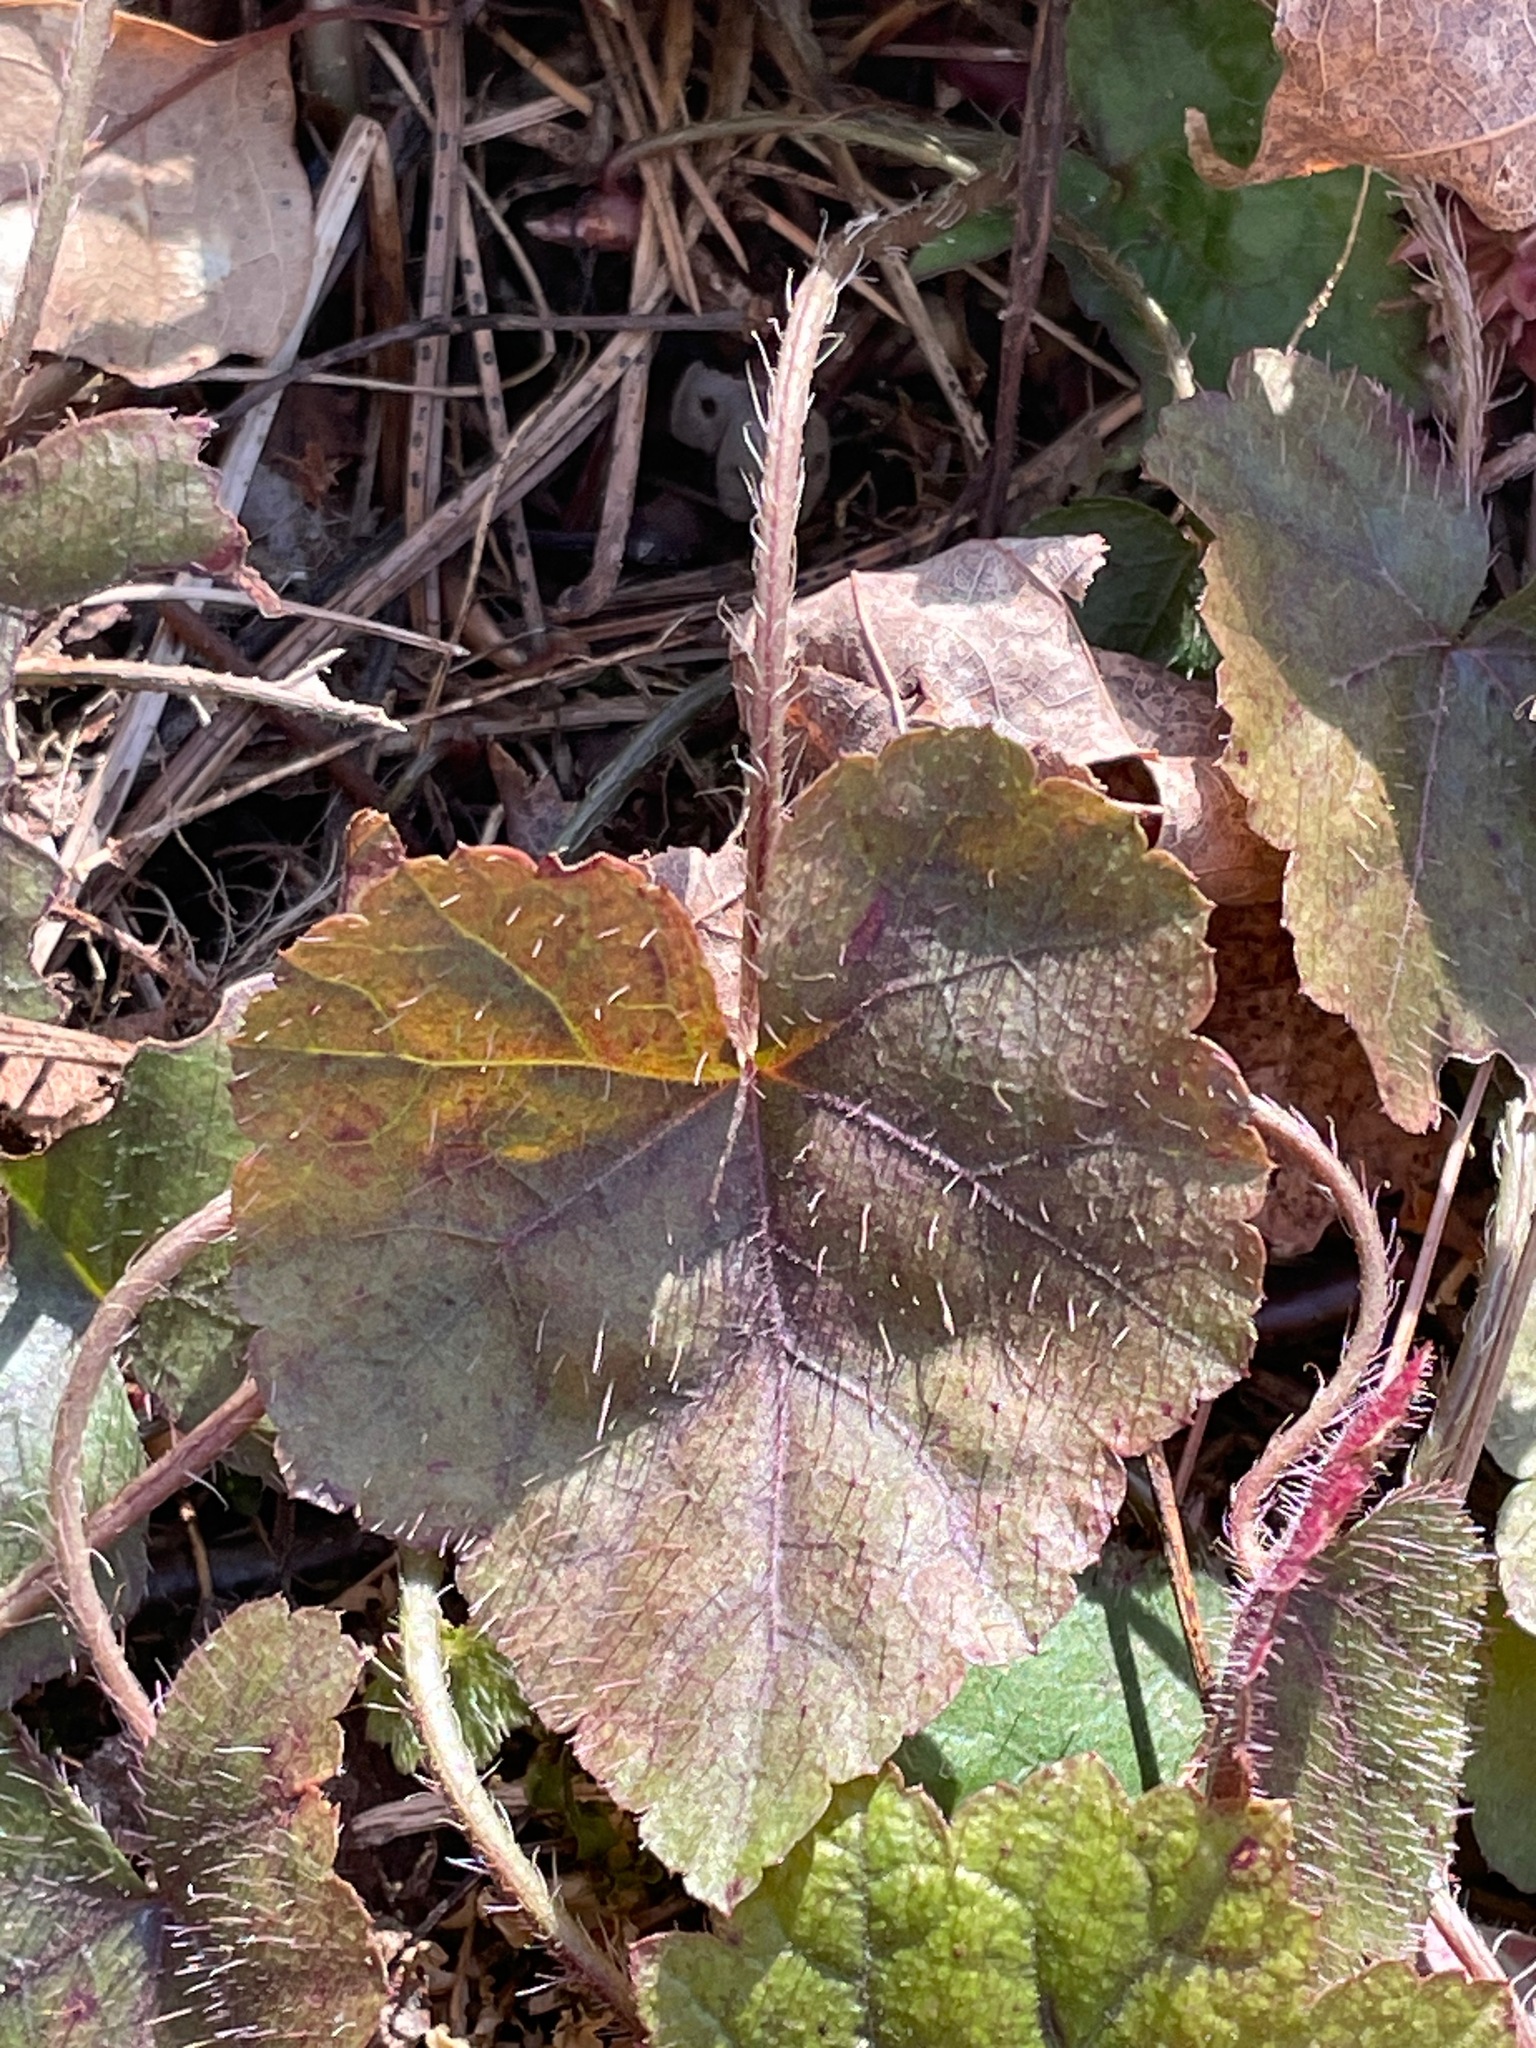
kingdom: Plantae
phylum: Tracheophyta
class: Magnoliopsida
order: Saxifragales
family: Saxifragaceae
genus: Mitella
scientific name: Mitella diphylla
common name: Coolwort
